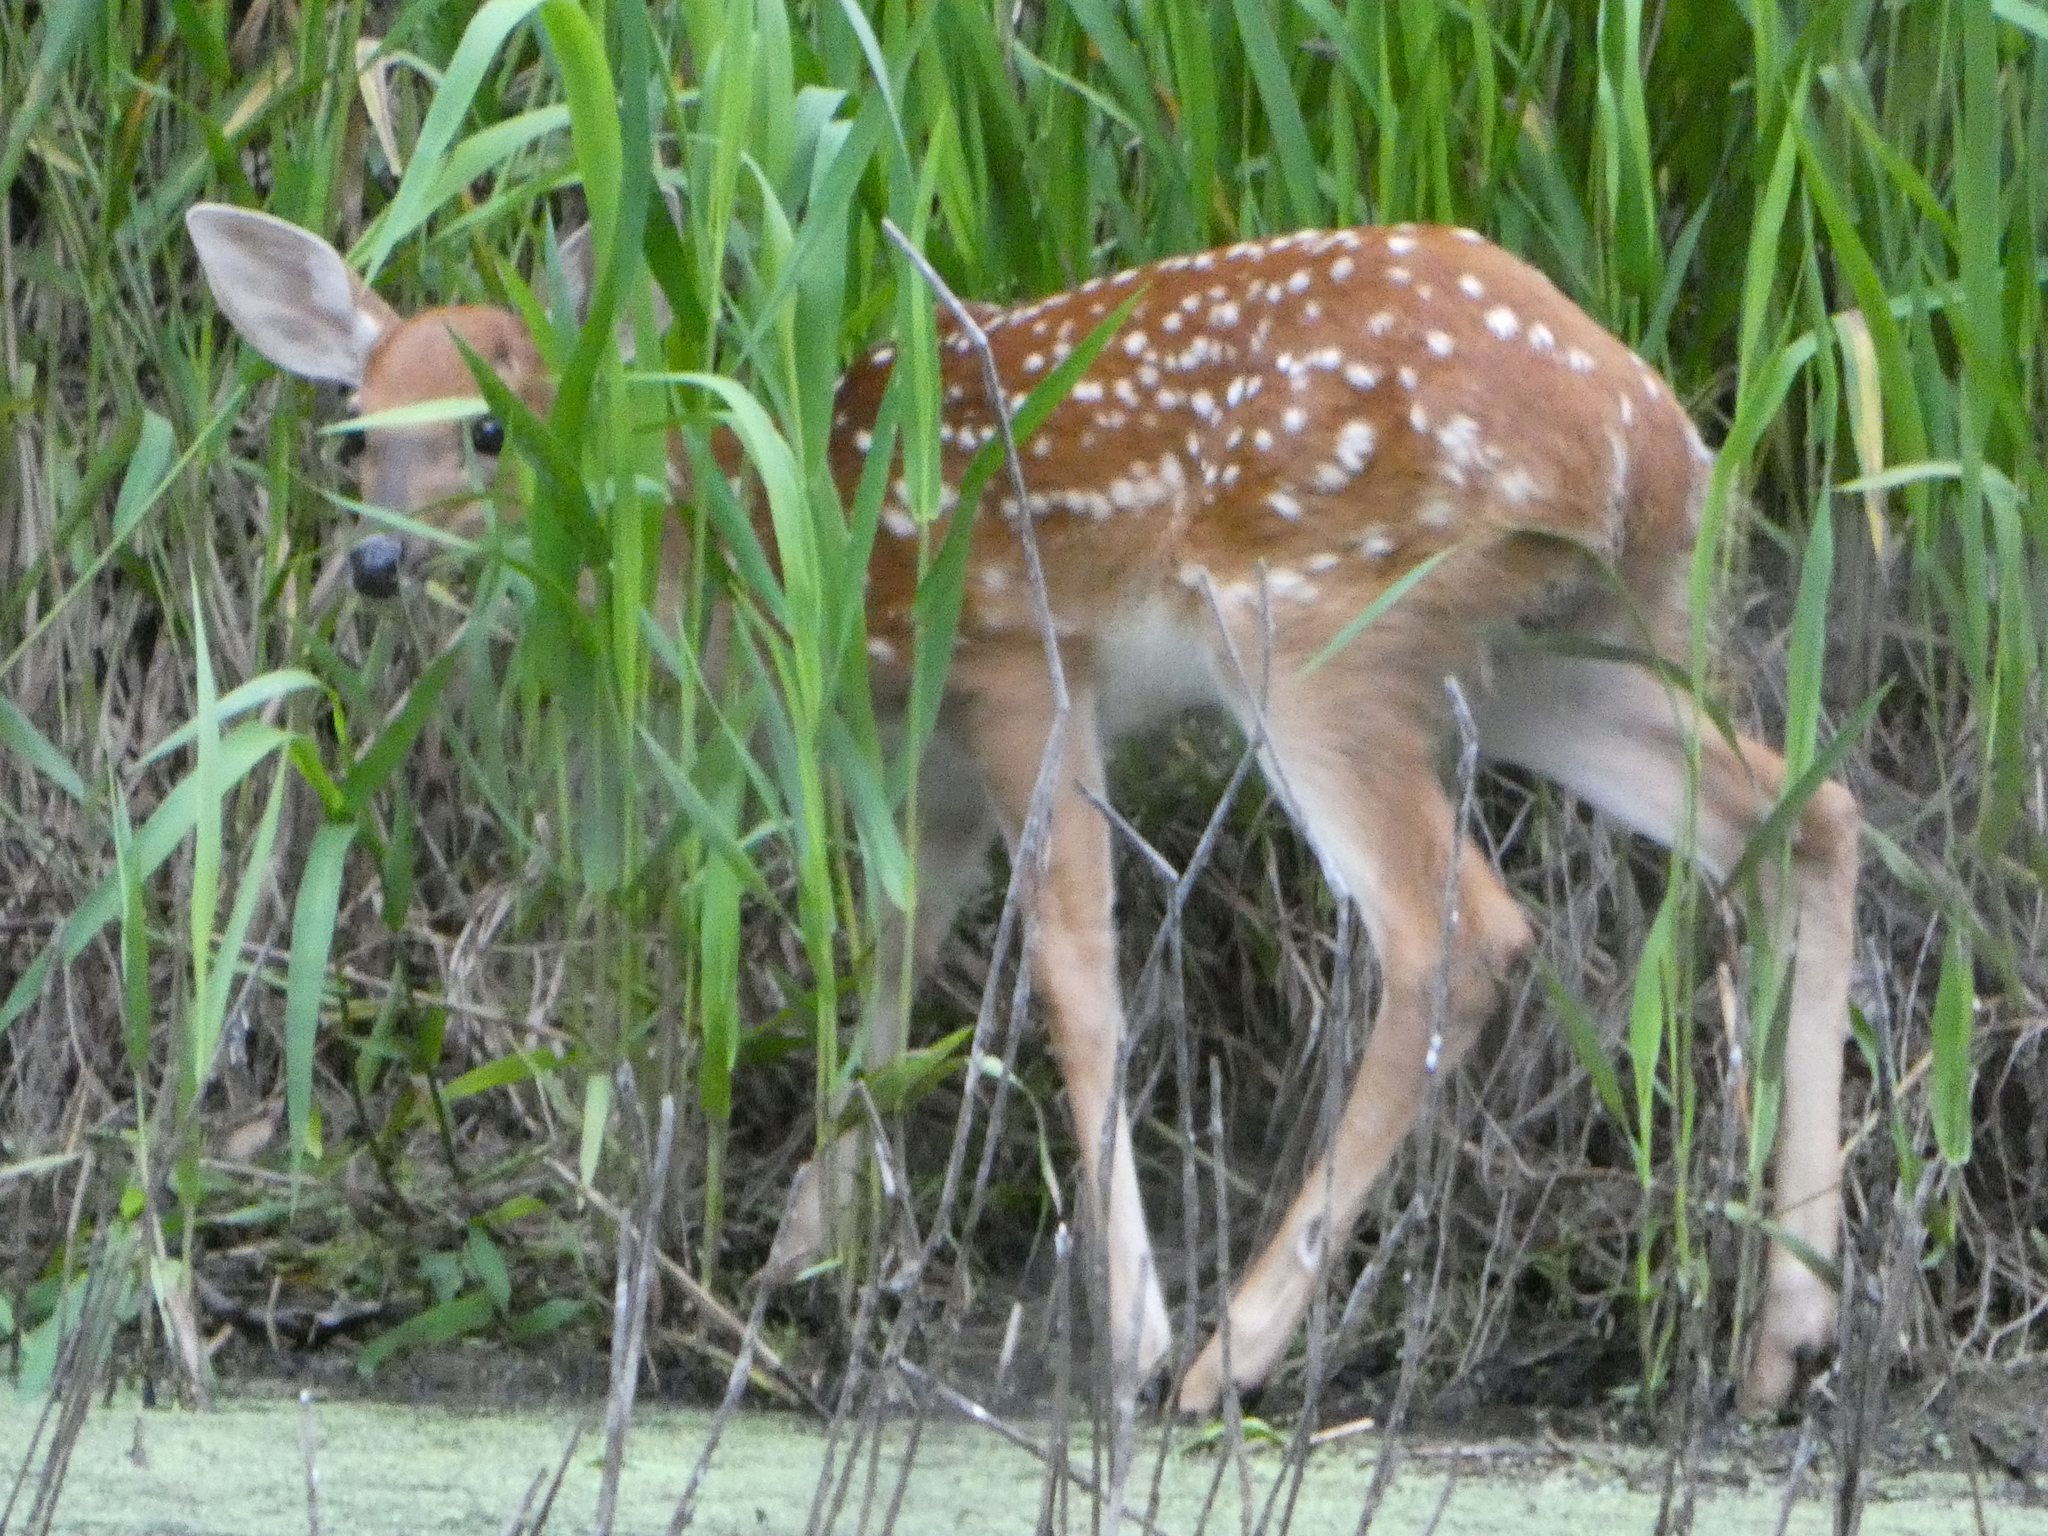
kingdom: Animalia
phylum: Chordata
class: Mammalia
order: Artiodactyla
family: Cervidae
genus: Odocoileus
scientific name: Odocoileus virginianus
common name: White-tailed deer
